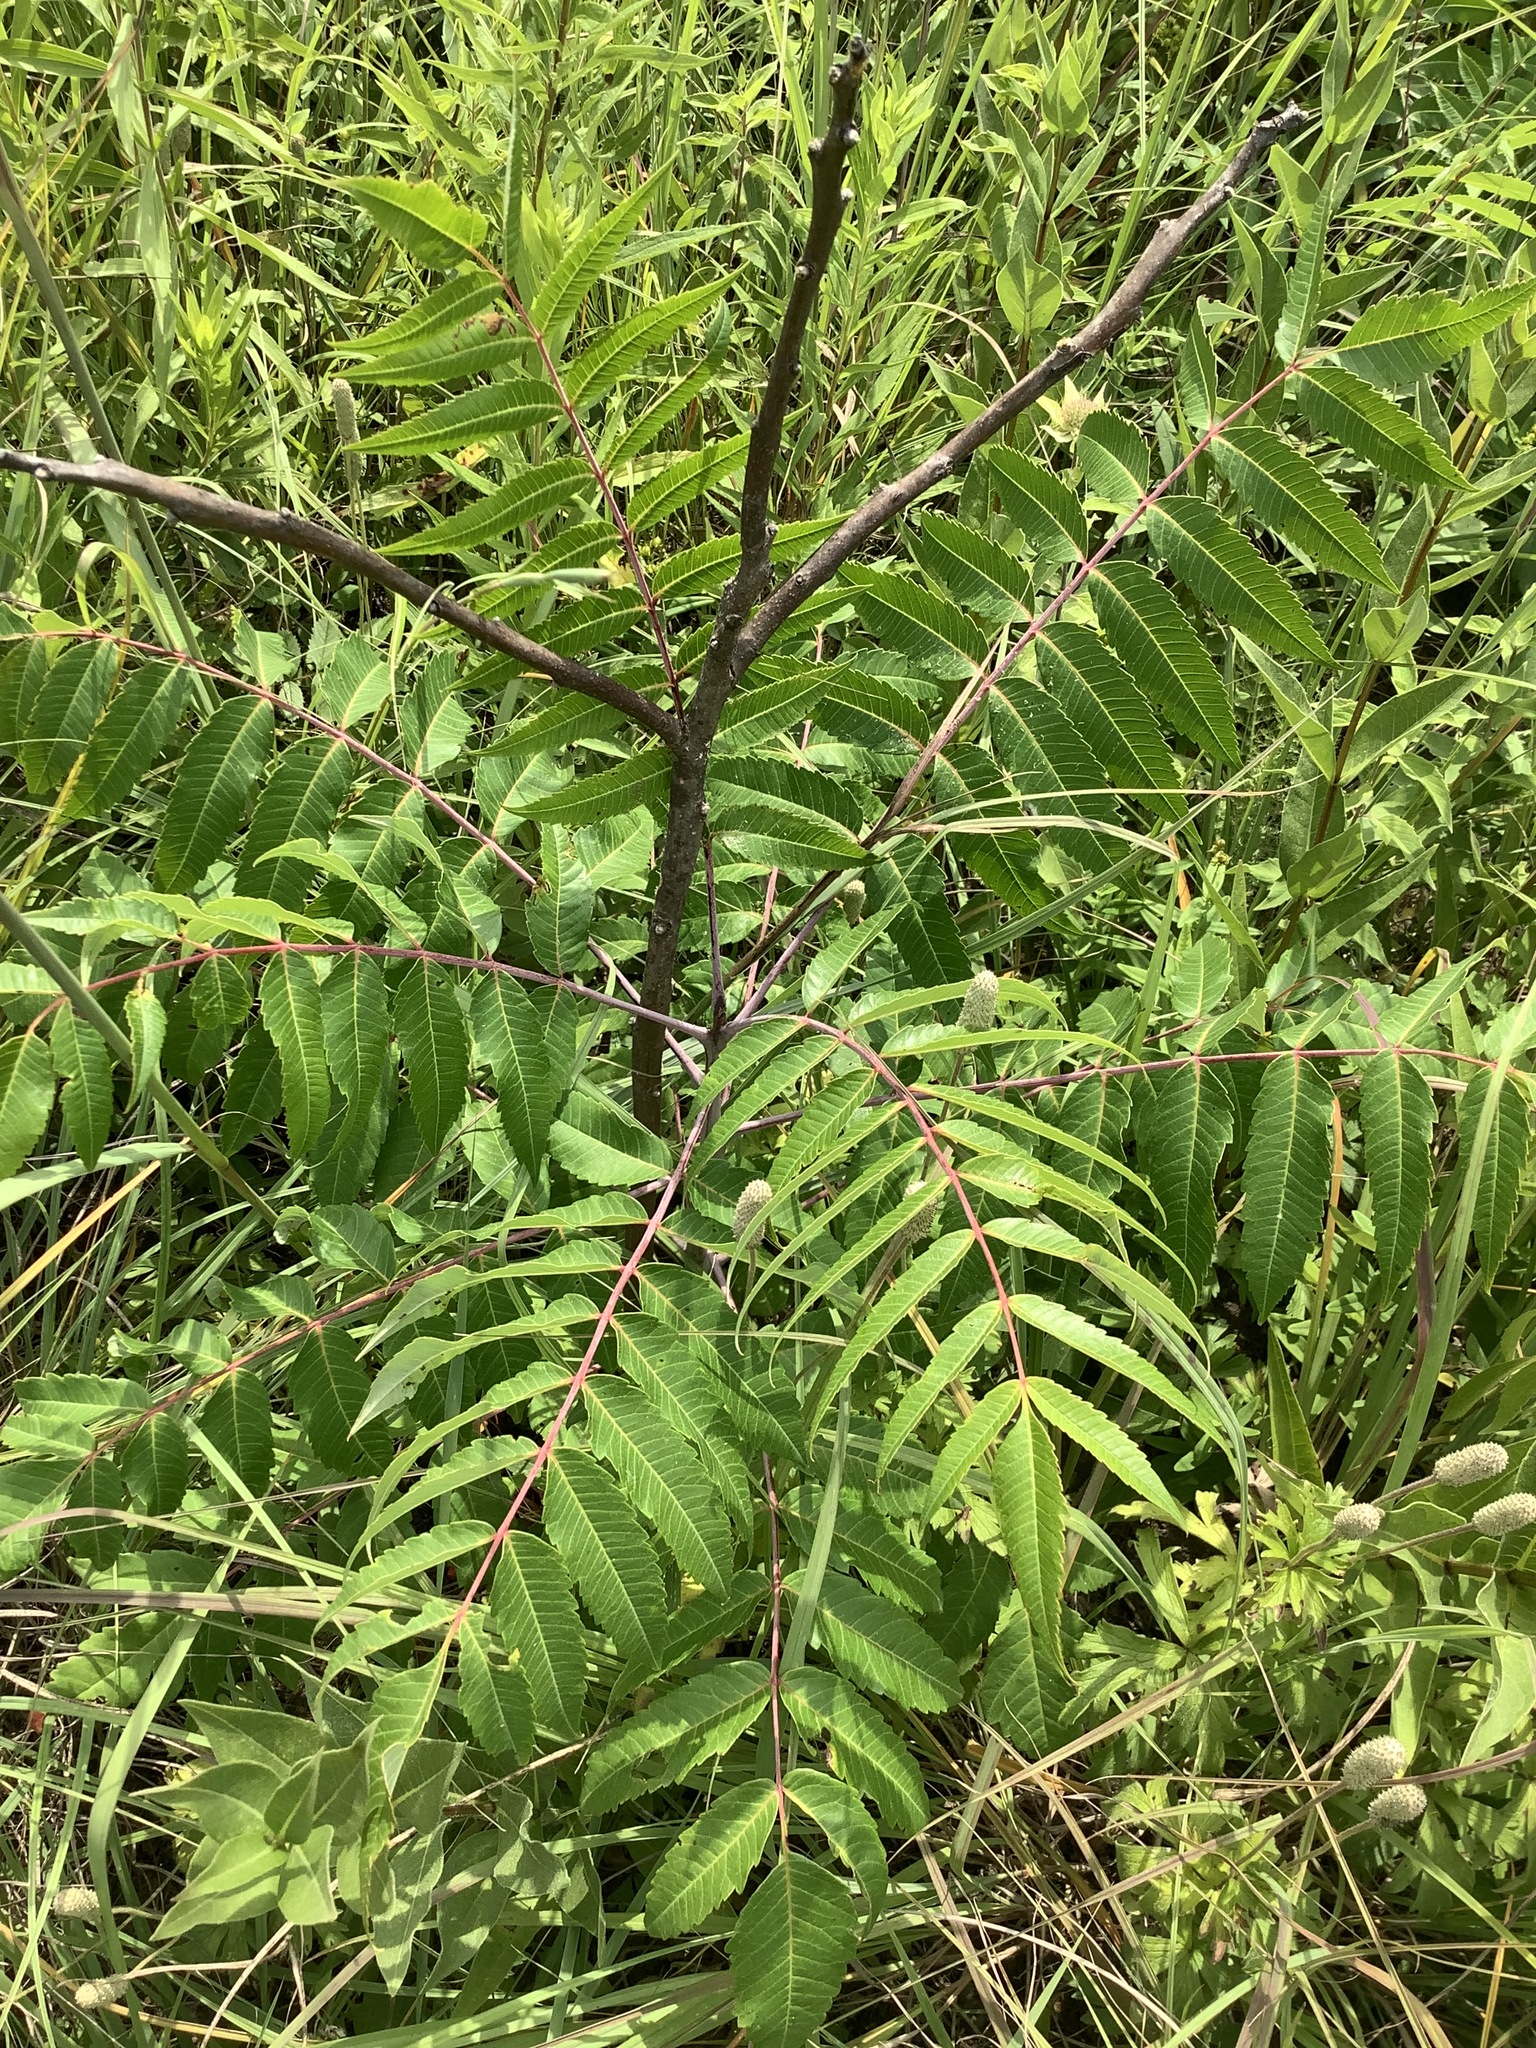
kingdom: Plantae
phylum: Tracheophyta
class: Magnoliopsida
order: Sapindales
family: Anacardiaceae
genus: Rhus
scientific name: Rhus glabra
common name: Scarlet sumac
